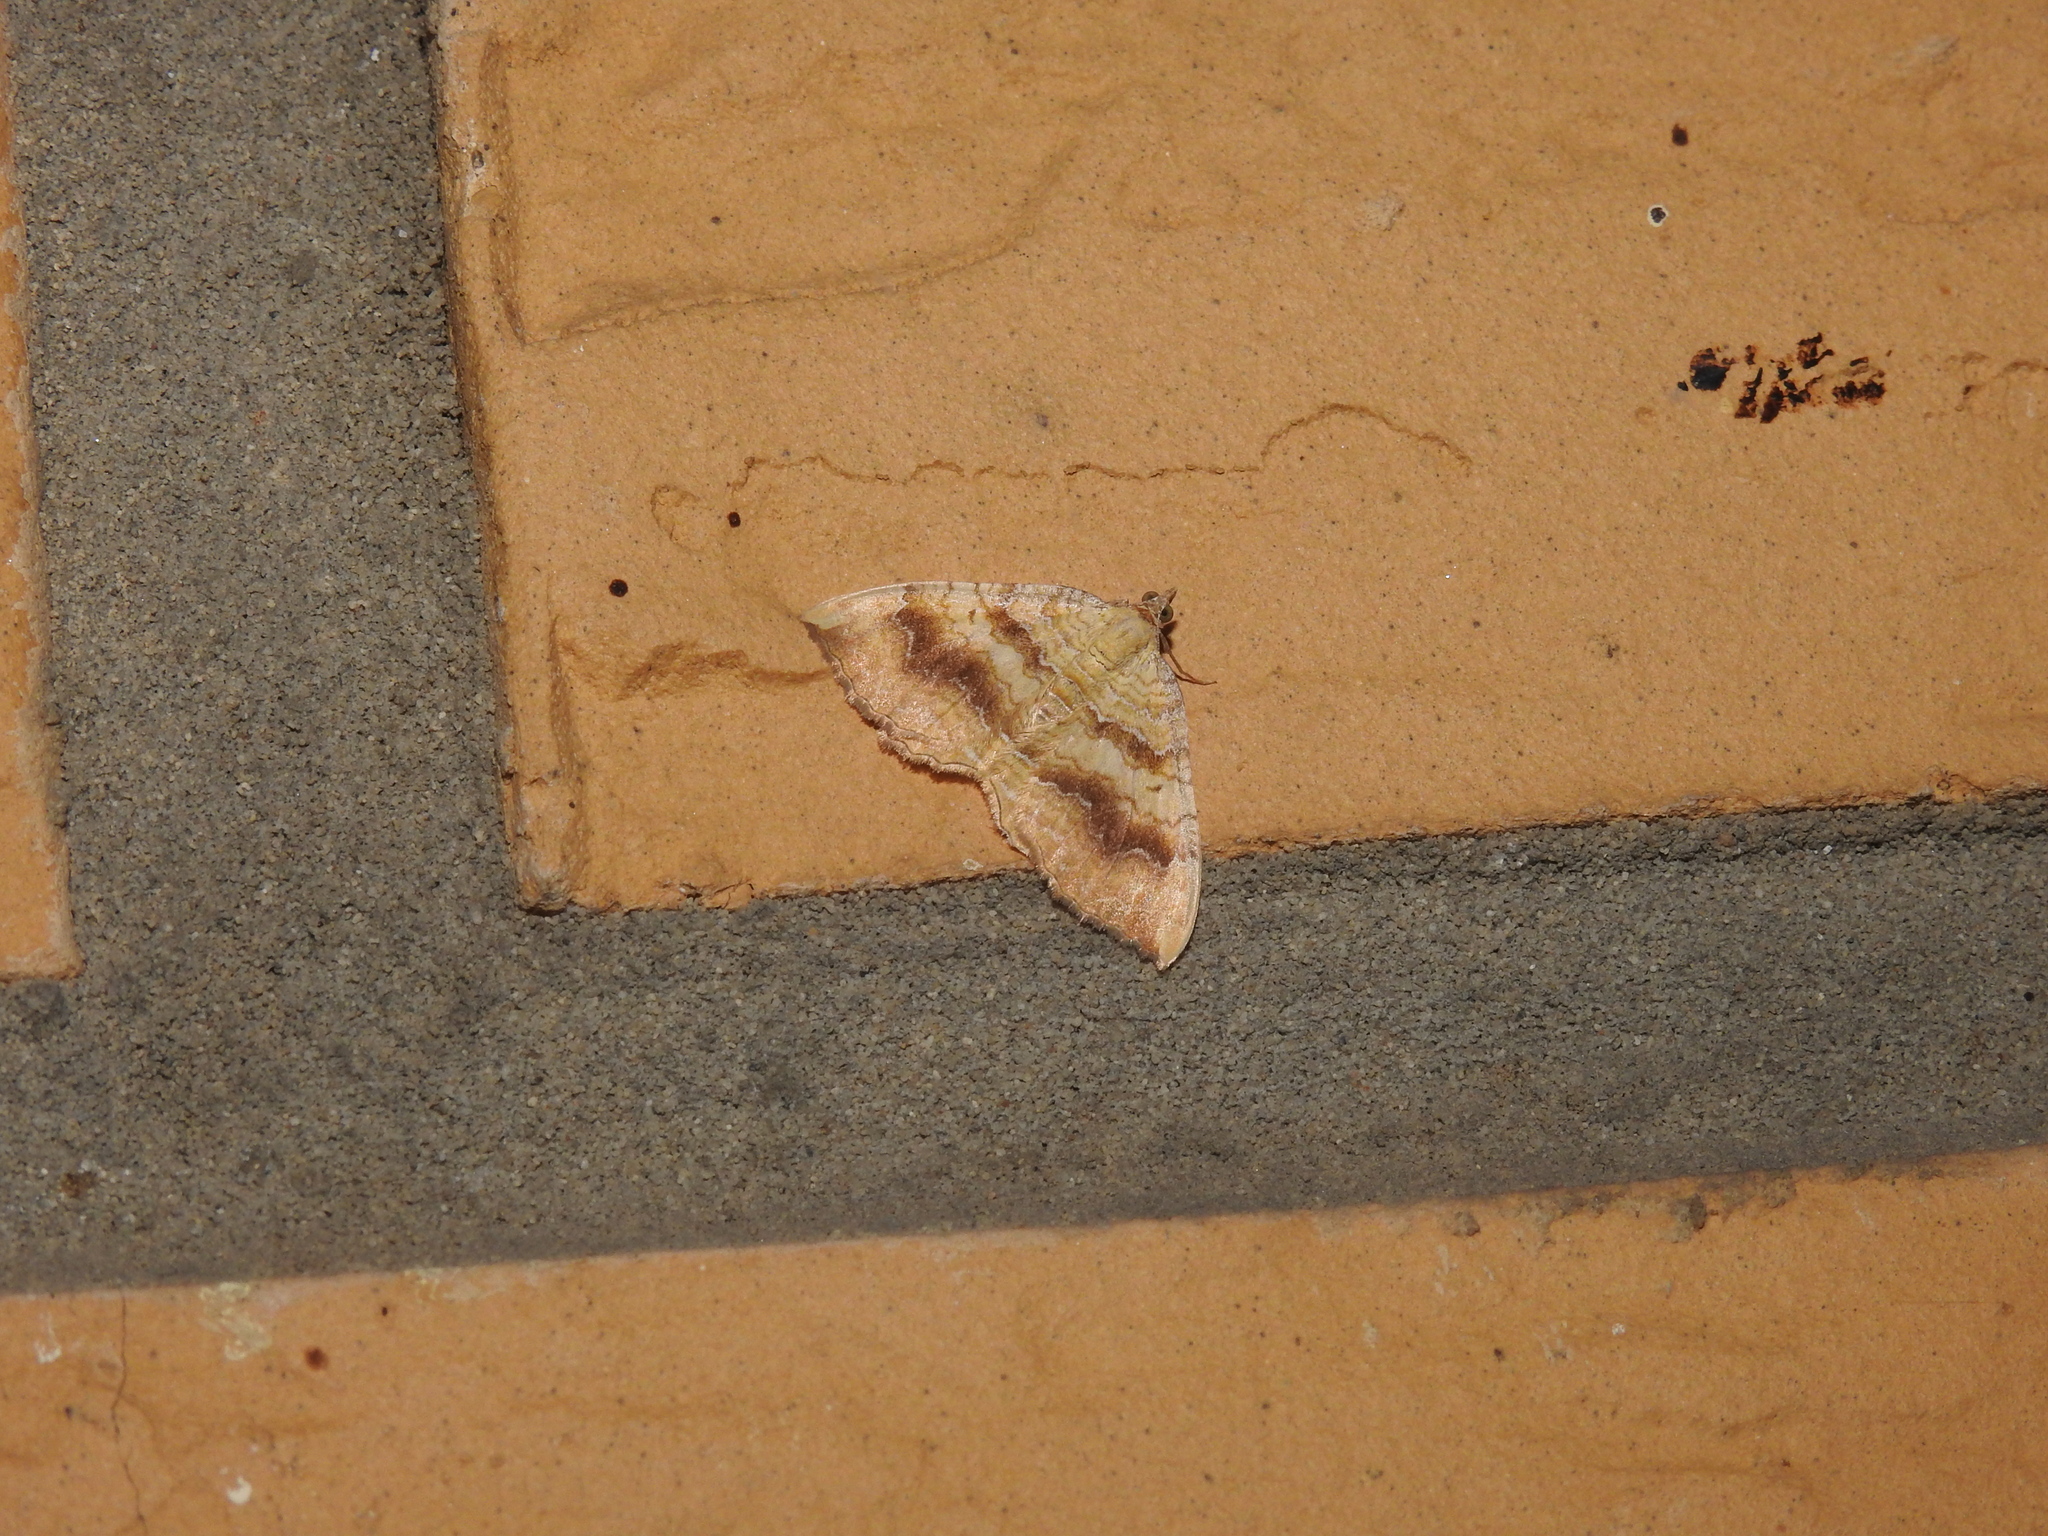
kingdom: Animalia
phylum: Arthropoda
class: Insecta
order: Lepidoptera
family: Geometridae
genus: Camptogramma
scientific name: Camptogramma bilineata
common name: Yellow shell
